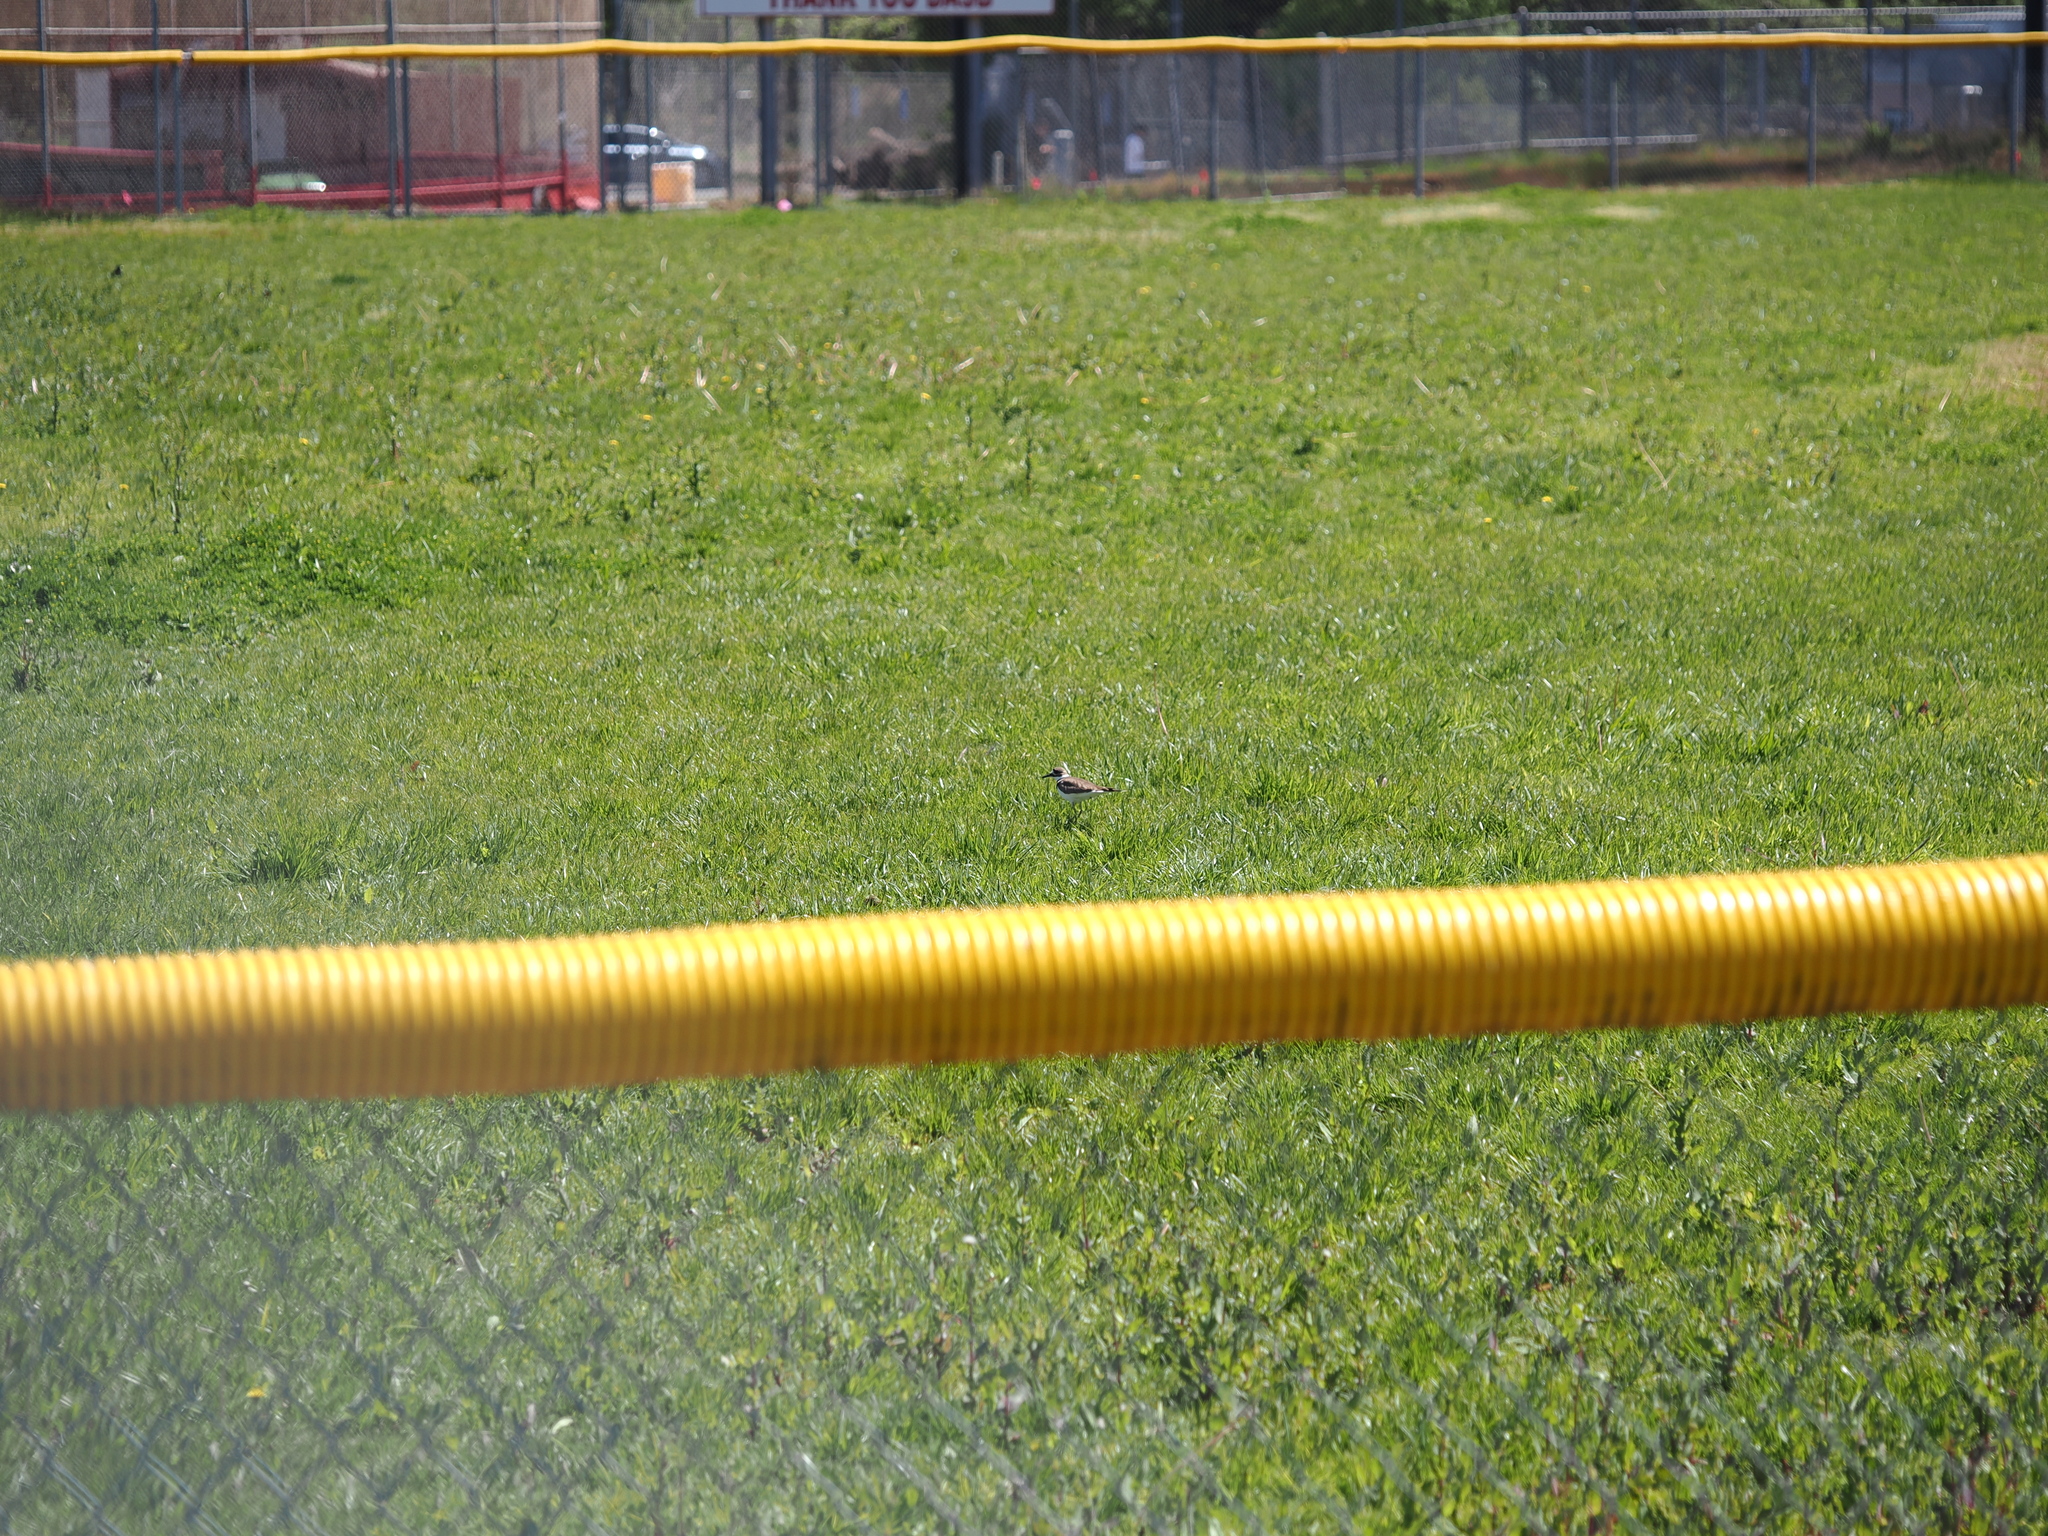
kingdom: Animalia
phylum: Chordata
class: Aves
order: Charadriiformes
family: Charadriidae
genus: Charadrius
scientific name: Charadrius vociferus
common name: Killdeer
